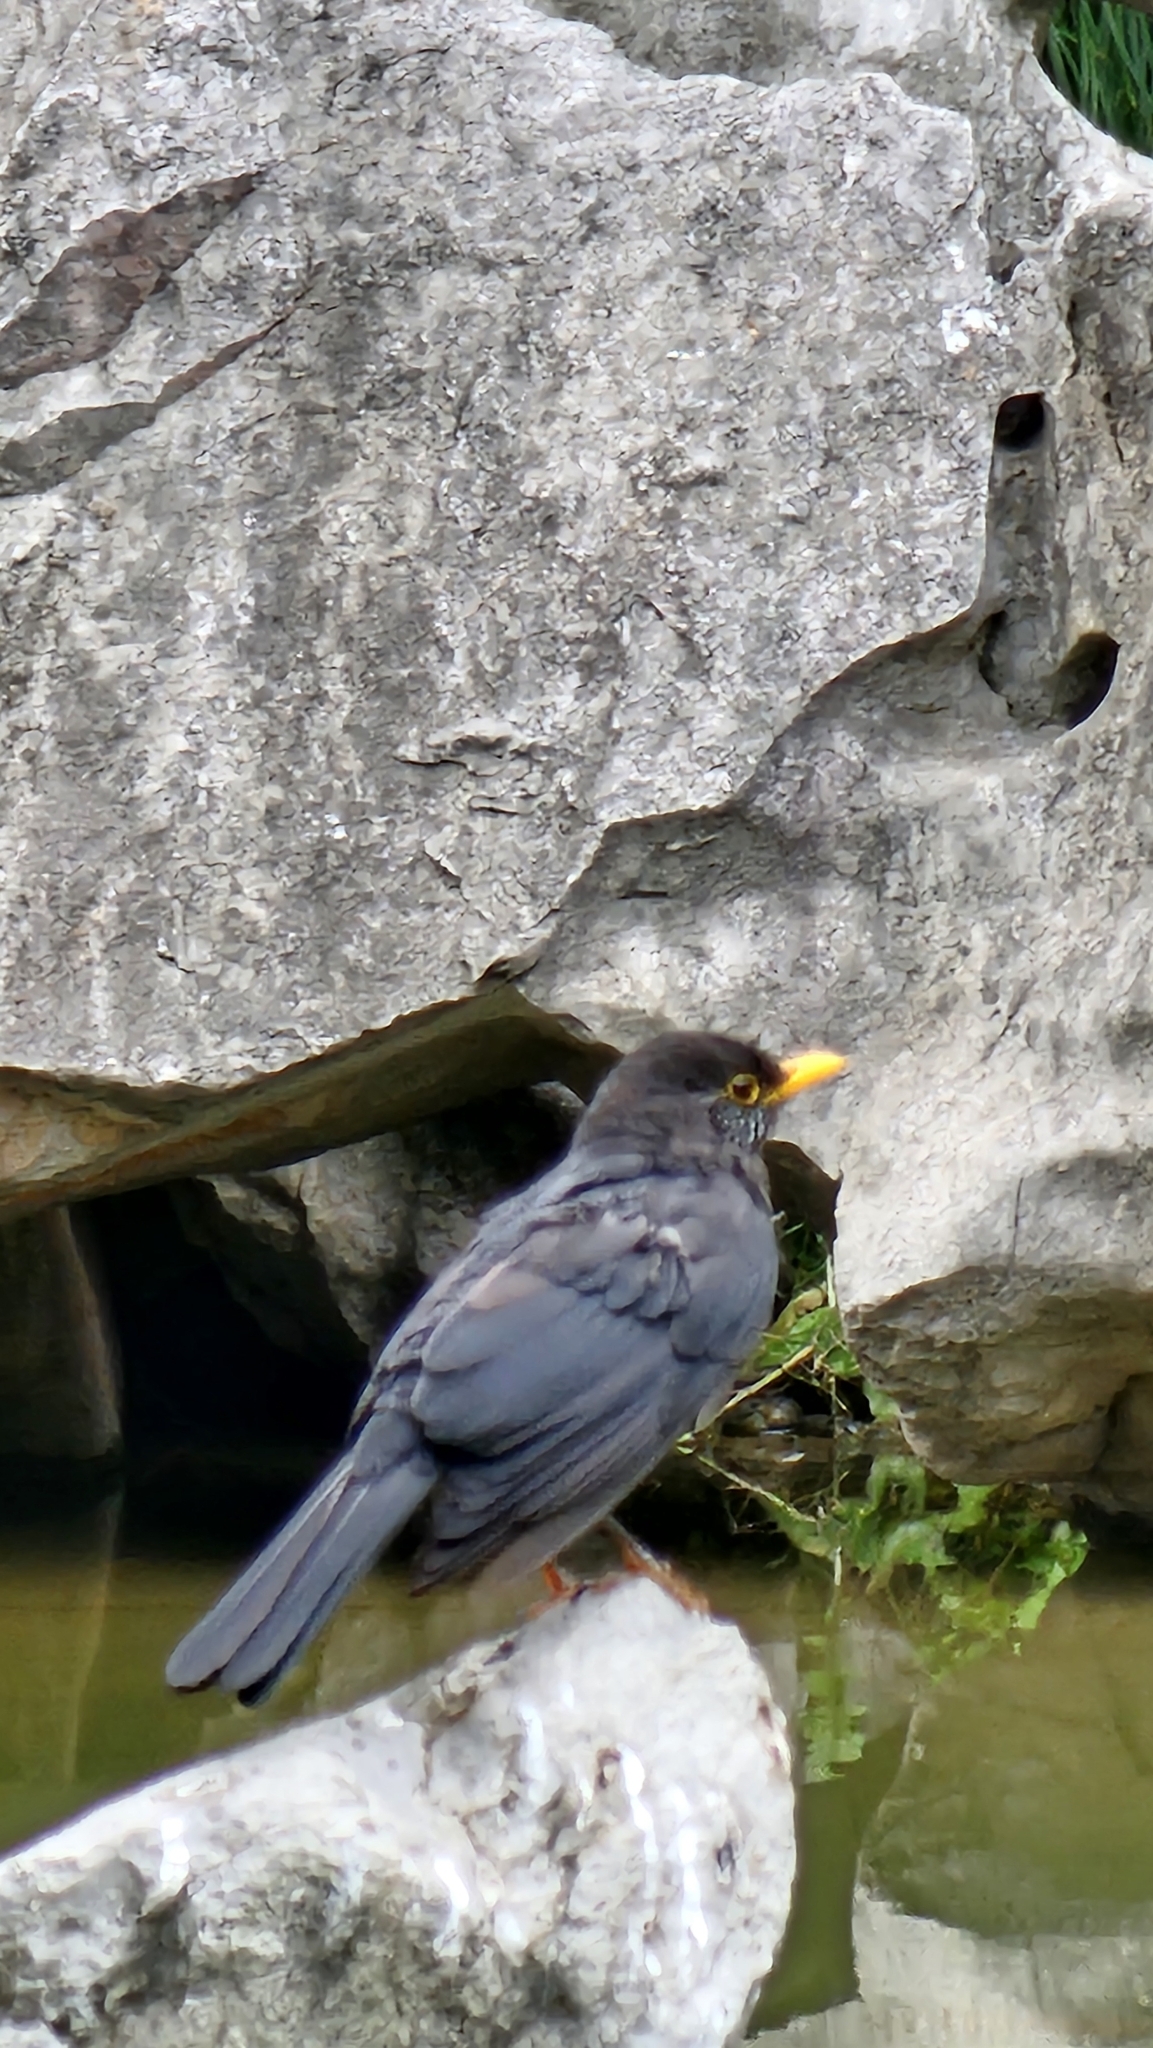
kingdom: Animalia
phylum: Chordata
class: Aves
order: Passeriformes
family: Turdidae
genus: Turdus
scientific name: Turdus mandarinus
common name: Chinese blackbird
